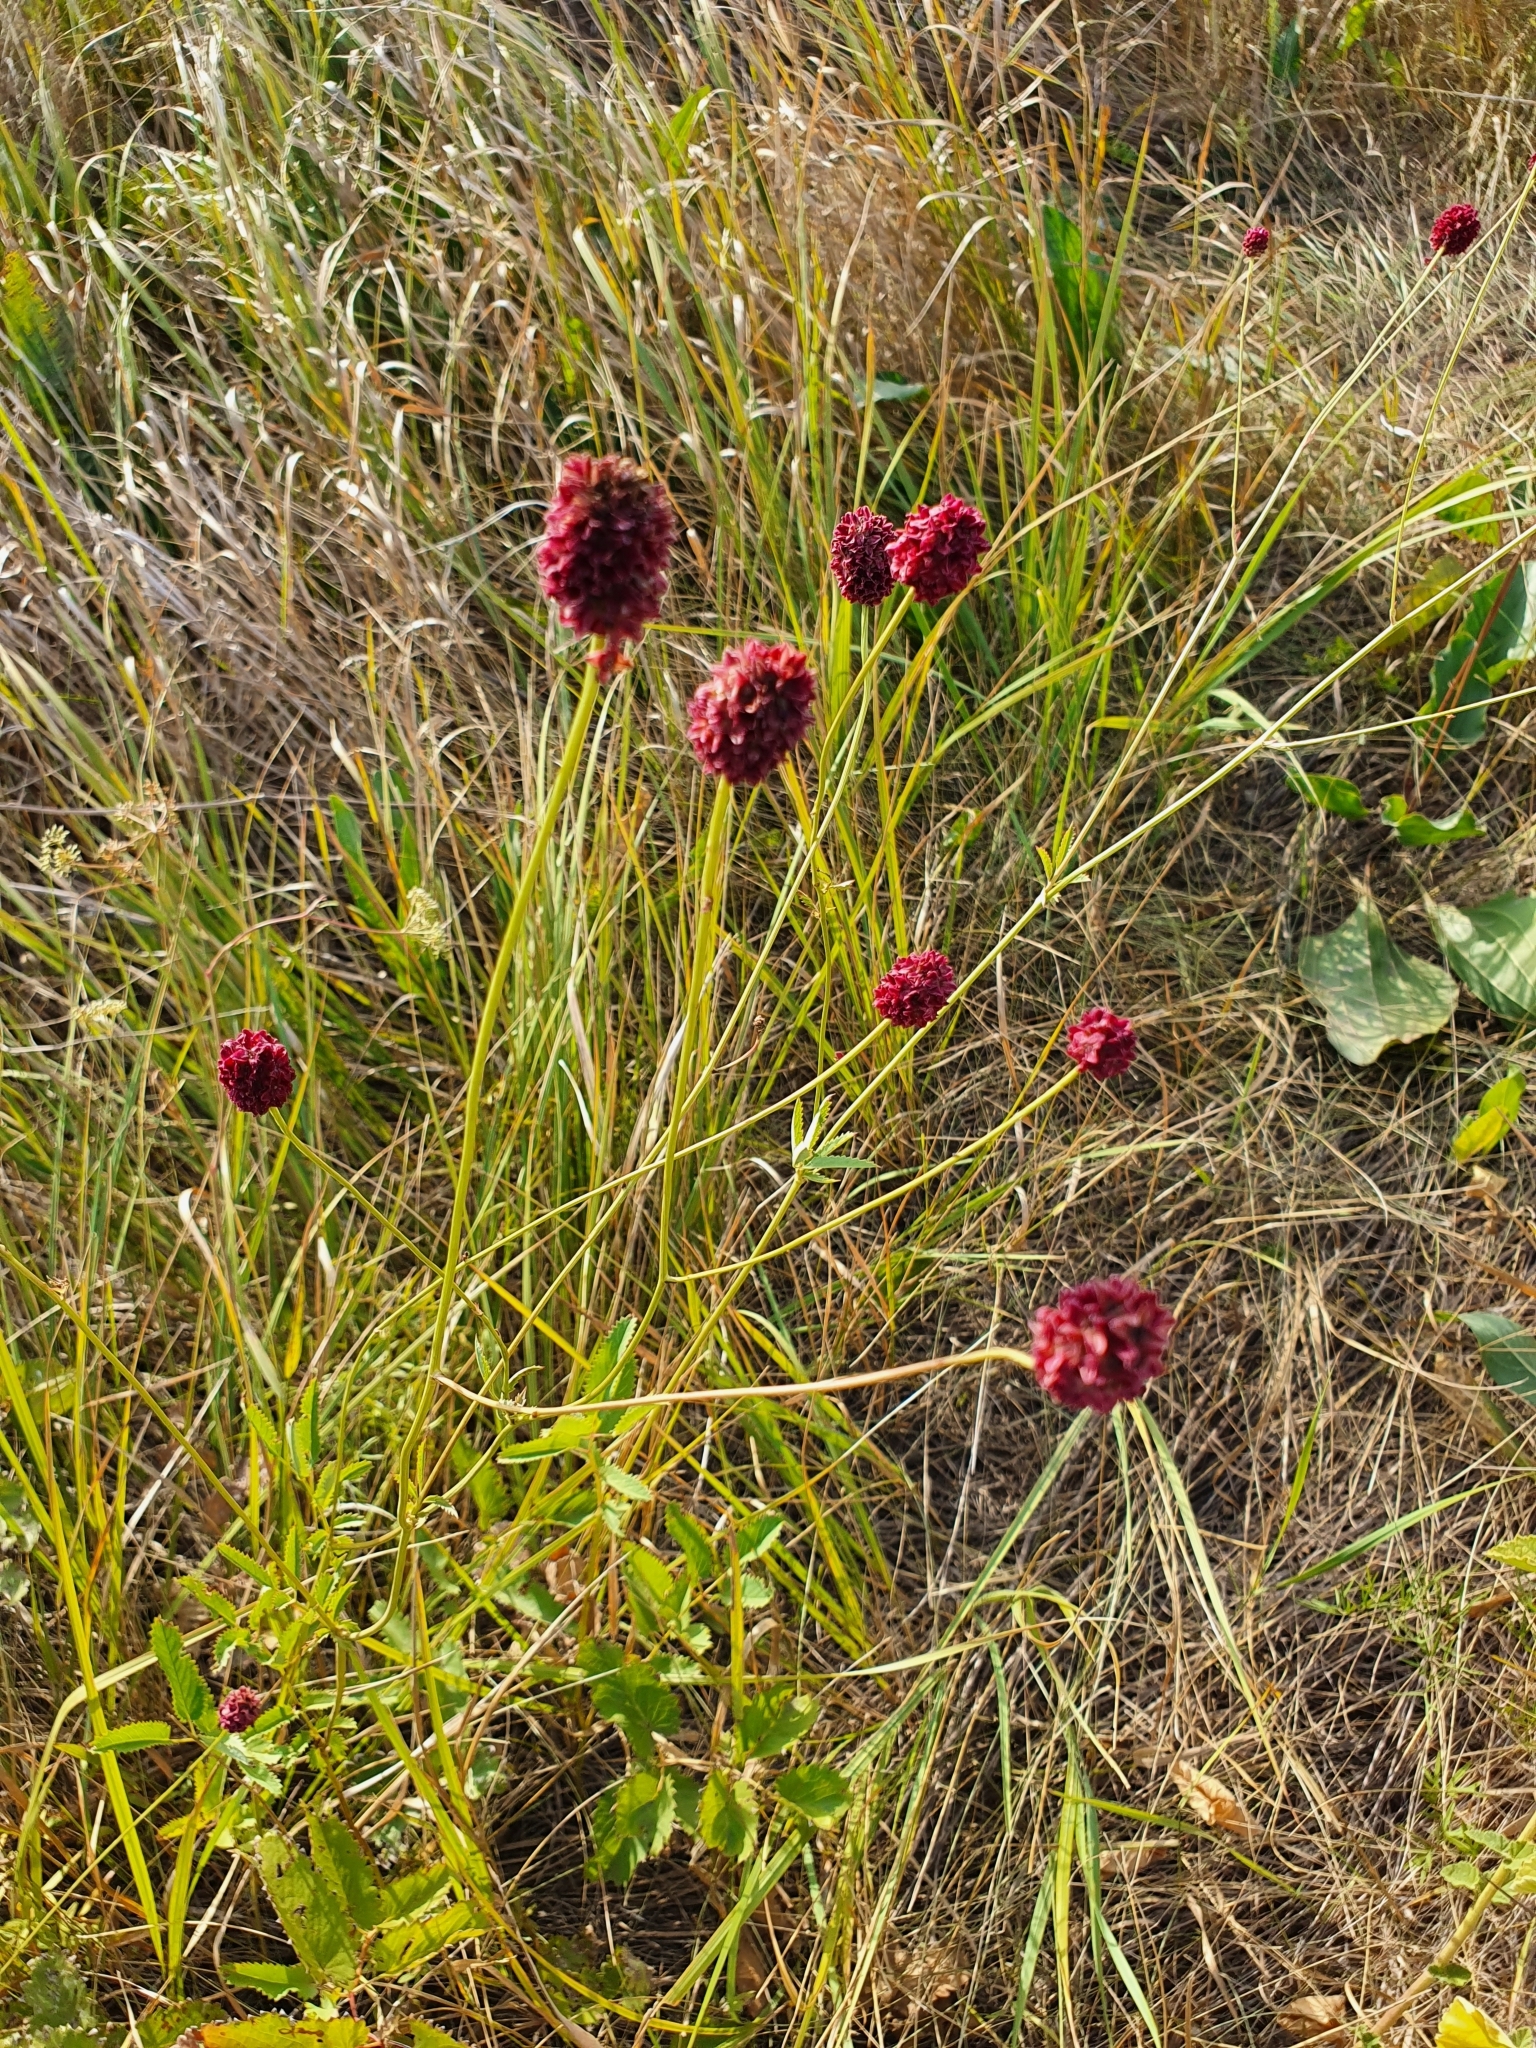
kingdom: Plantae
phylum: Tracheophyta
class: Magnoliopsida
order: Rosales
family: Rosaceae
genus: Sanguisorba
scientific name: Sanguisorba officinalis
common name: Great burnet
